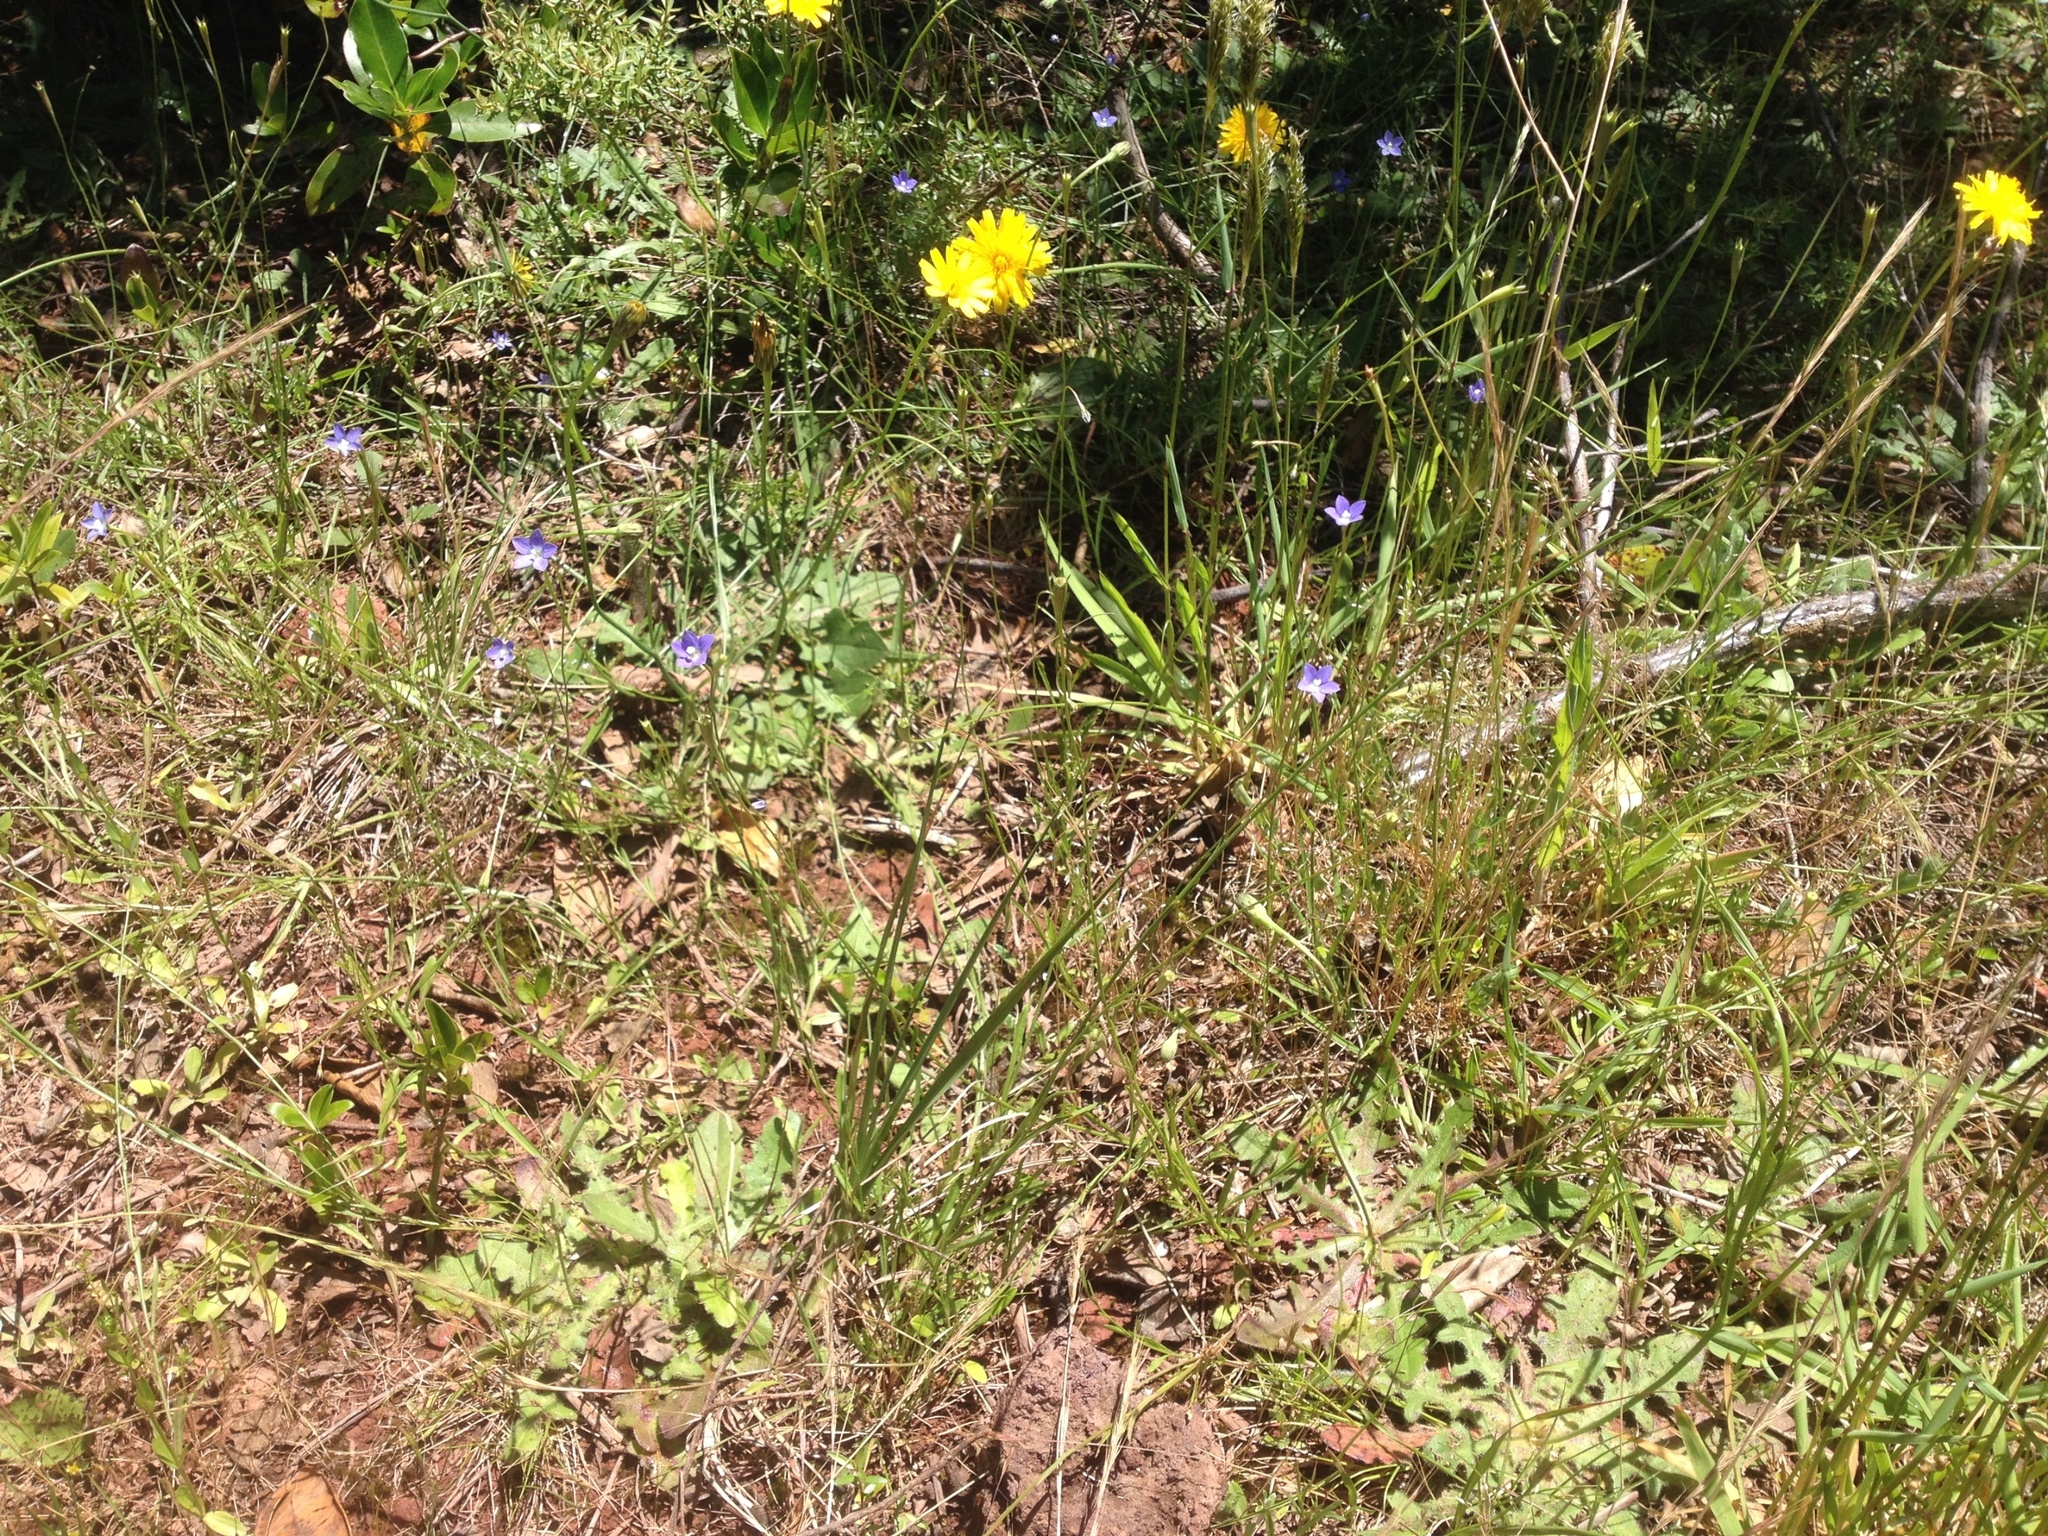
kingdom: Plantae
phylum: Tracheophyta
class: Magnoliopsida
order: Asterales
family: Campanulaceae
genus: Wahlenbergia
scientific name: Wahlenbergia violacea
